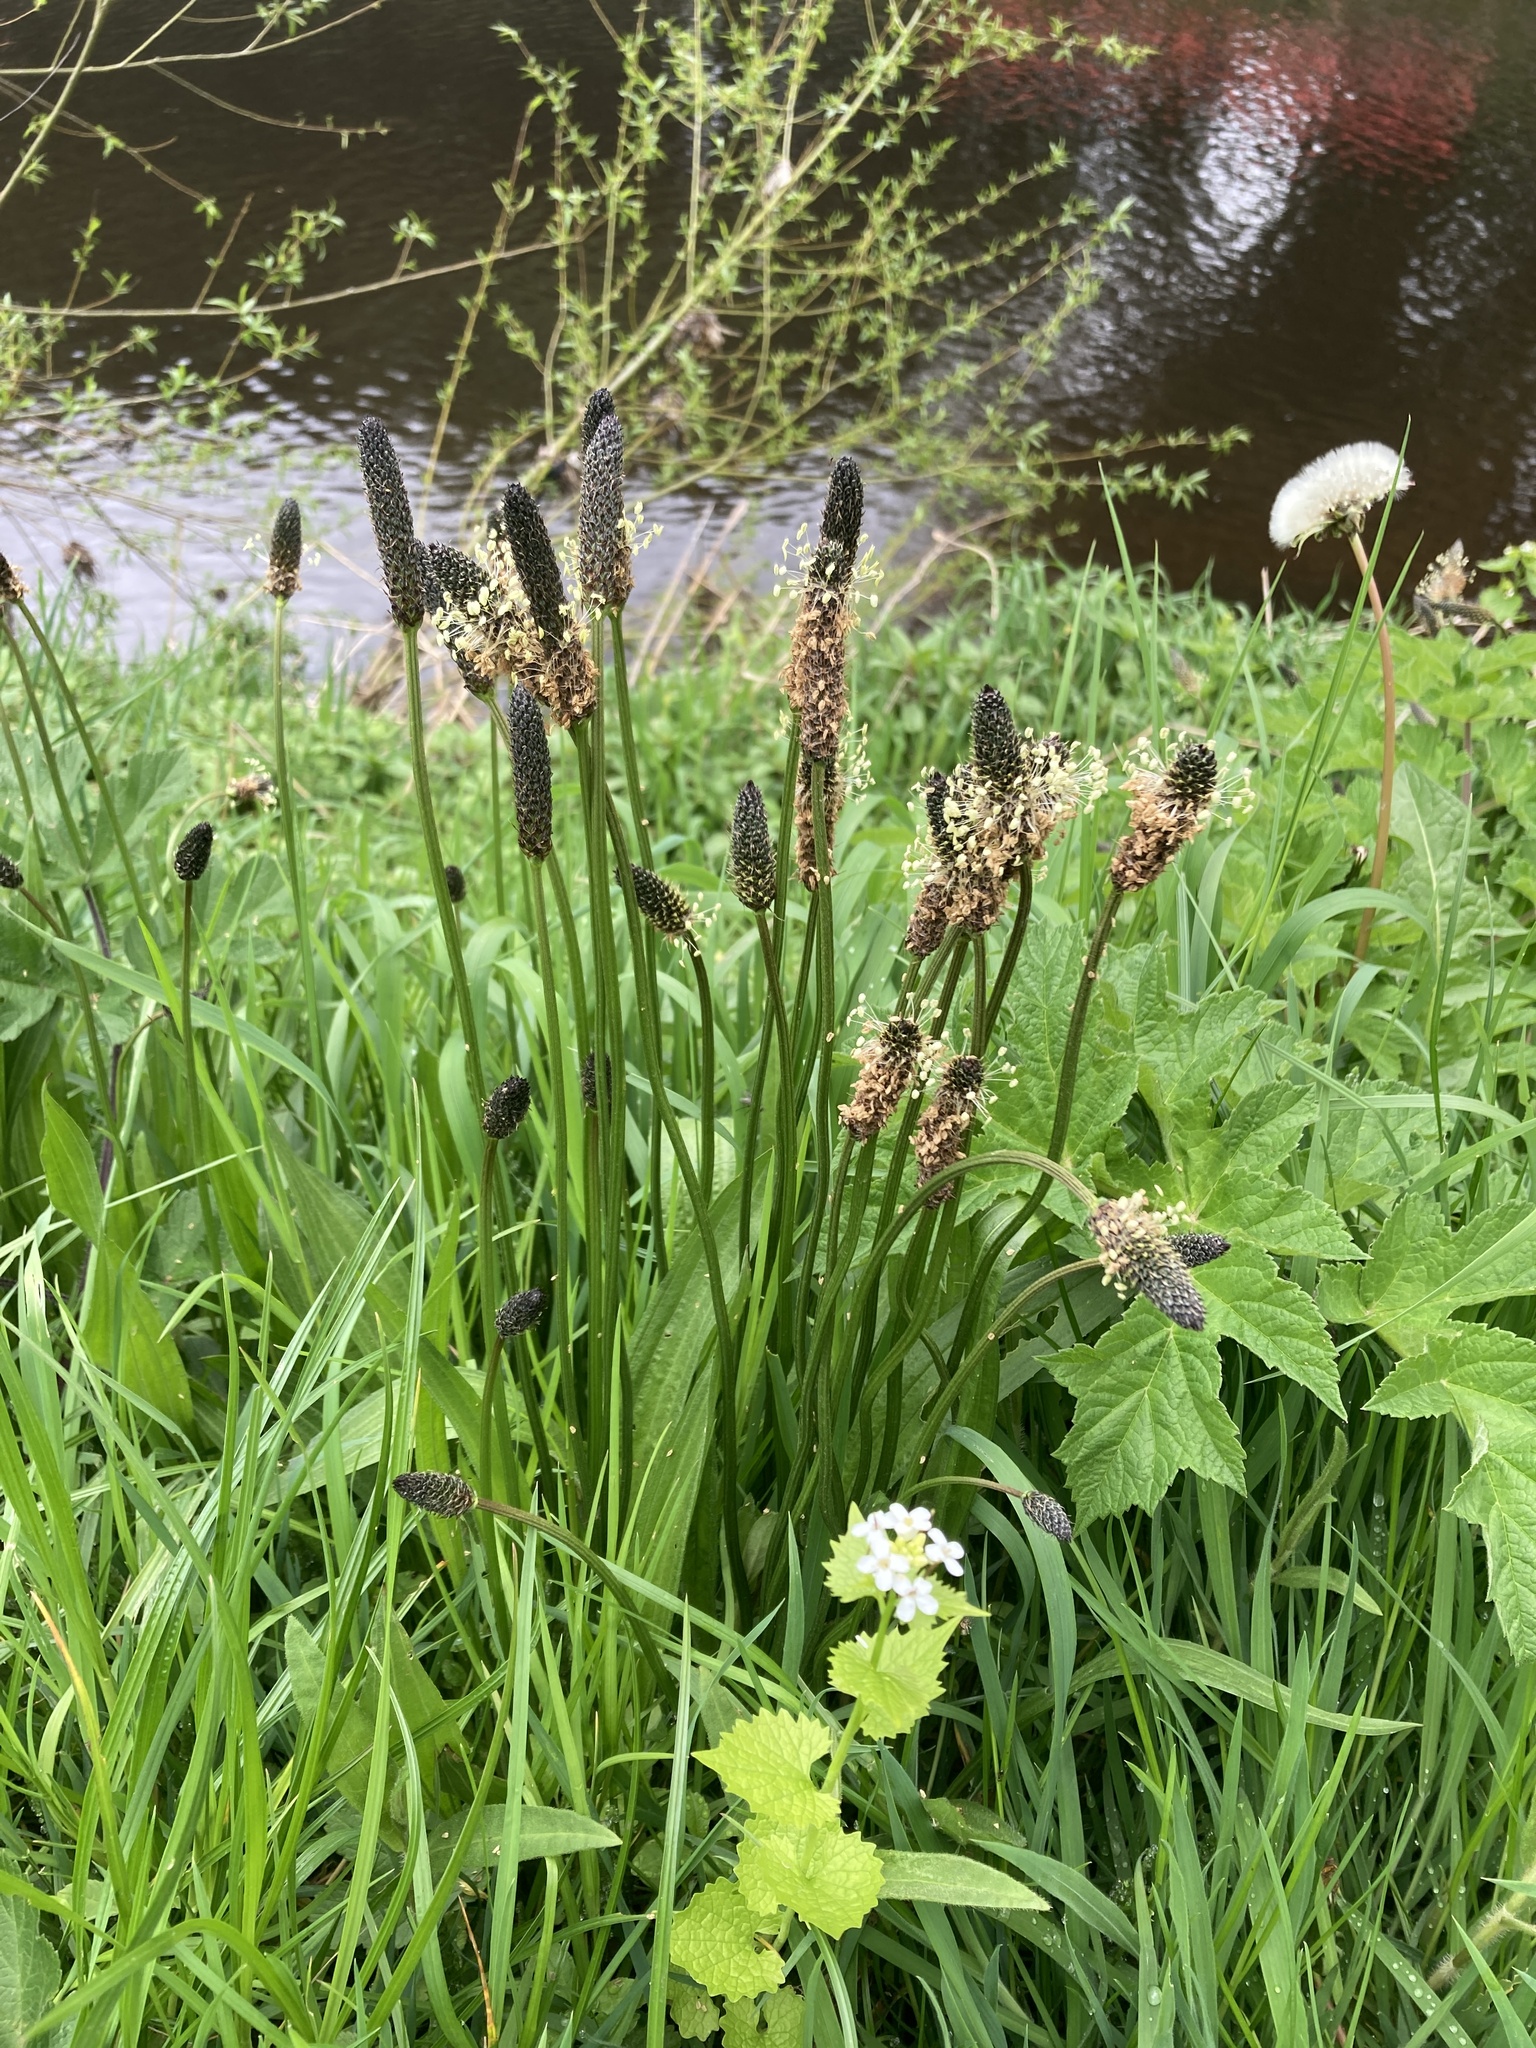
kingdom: Plantae
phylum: Tracheophyta
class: Magnoliopsida
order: Lamiales
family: Plantaginaceae
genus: Plantago
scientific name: Plantago lanceolata
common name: Ribwort plantain
